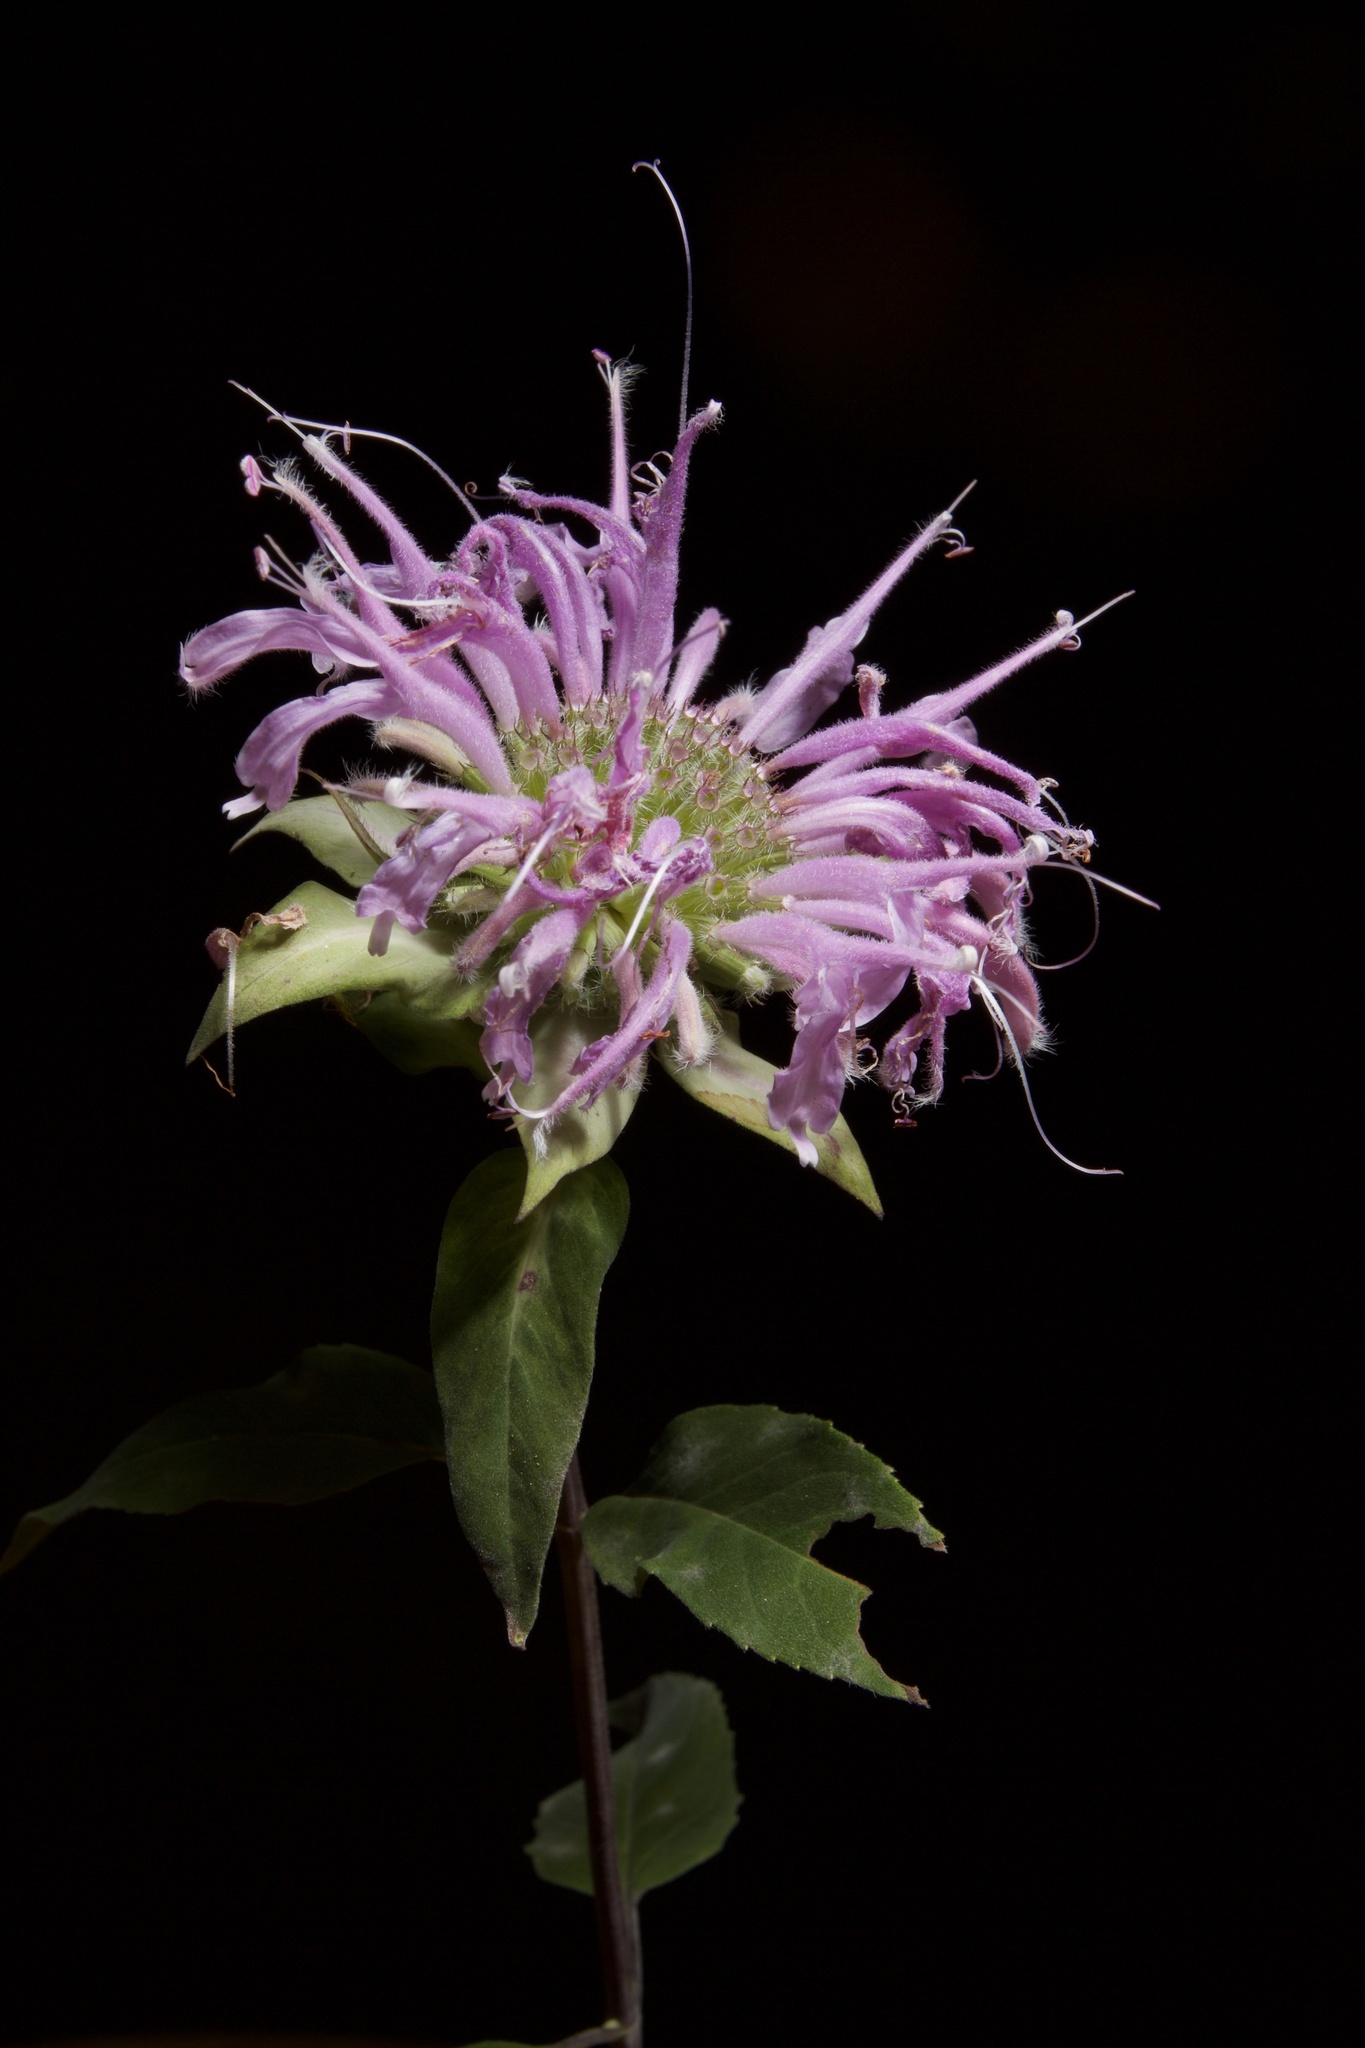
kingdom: Plantae
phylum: Tracheophyta
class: Magnoliopsida
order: Lamiales
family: Lamiaceae
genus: Monarda
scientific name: Monarda fistulosa
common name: Purple beebalm
